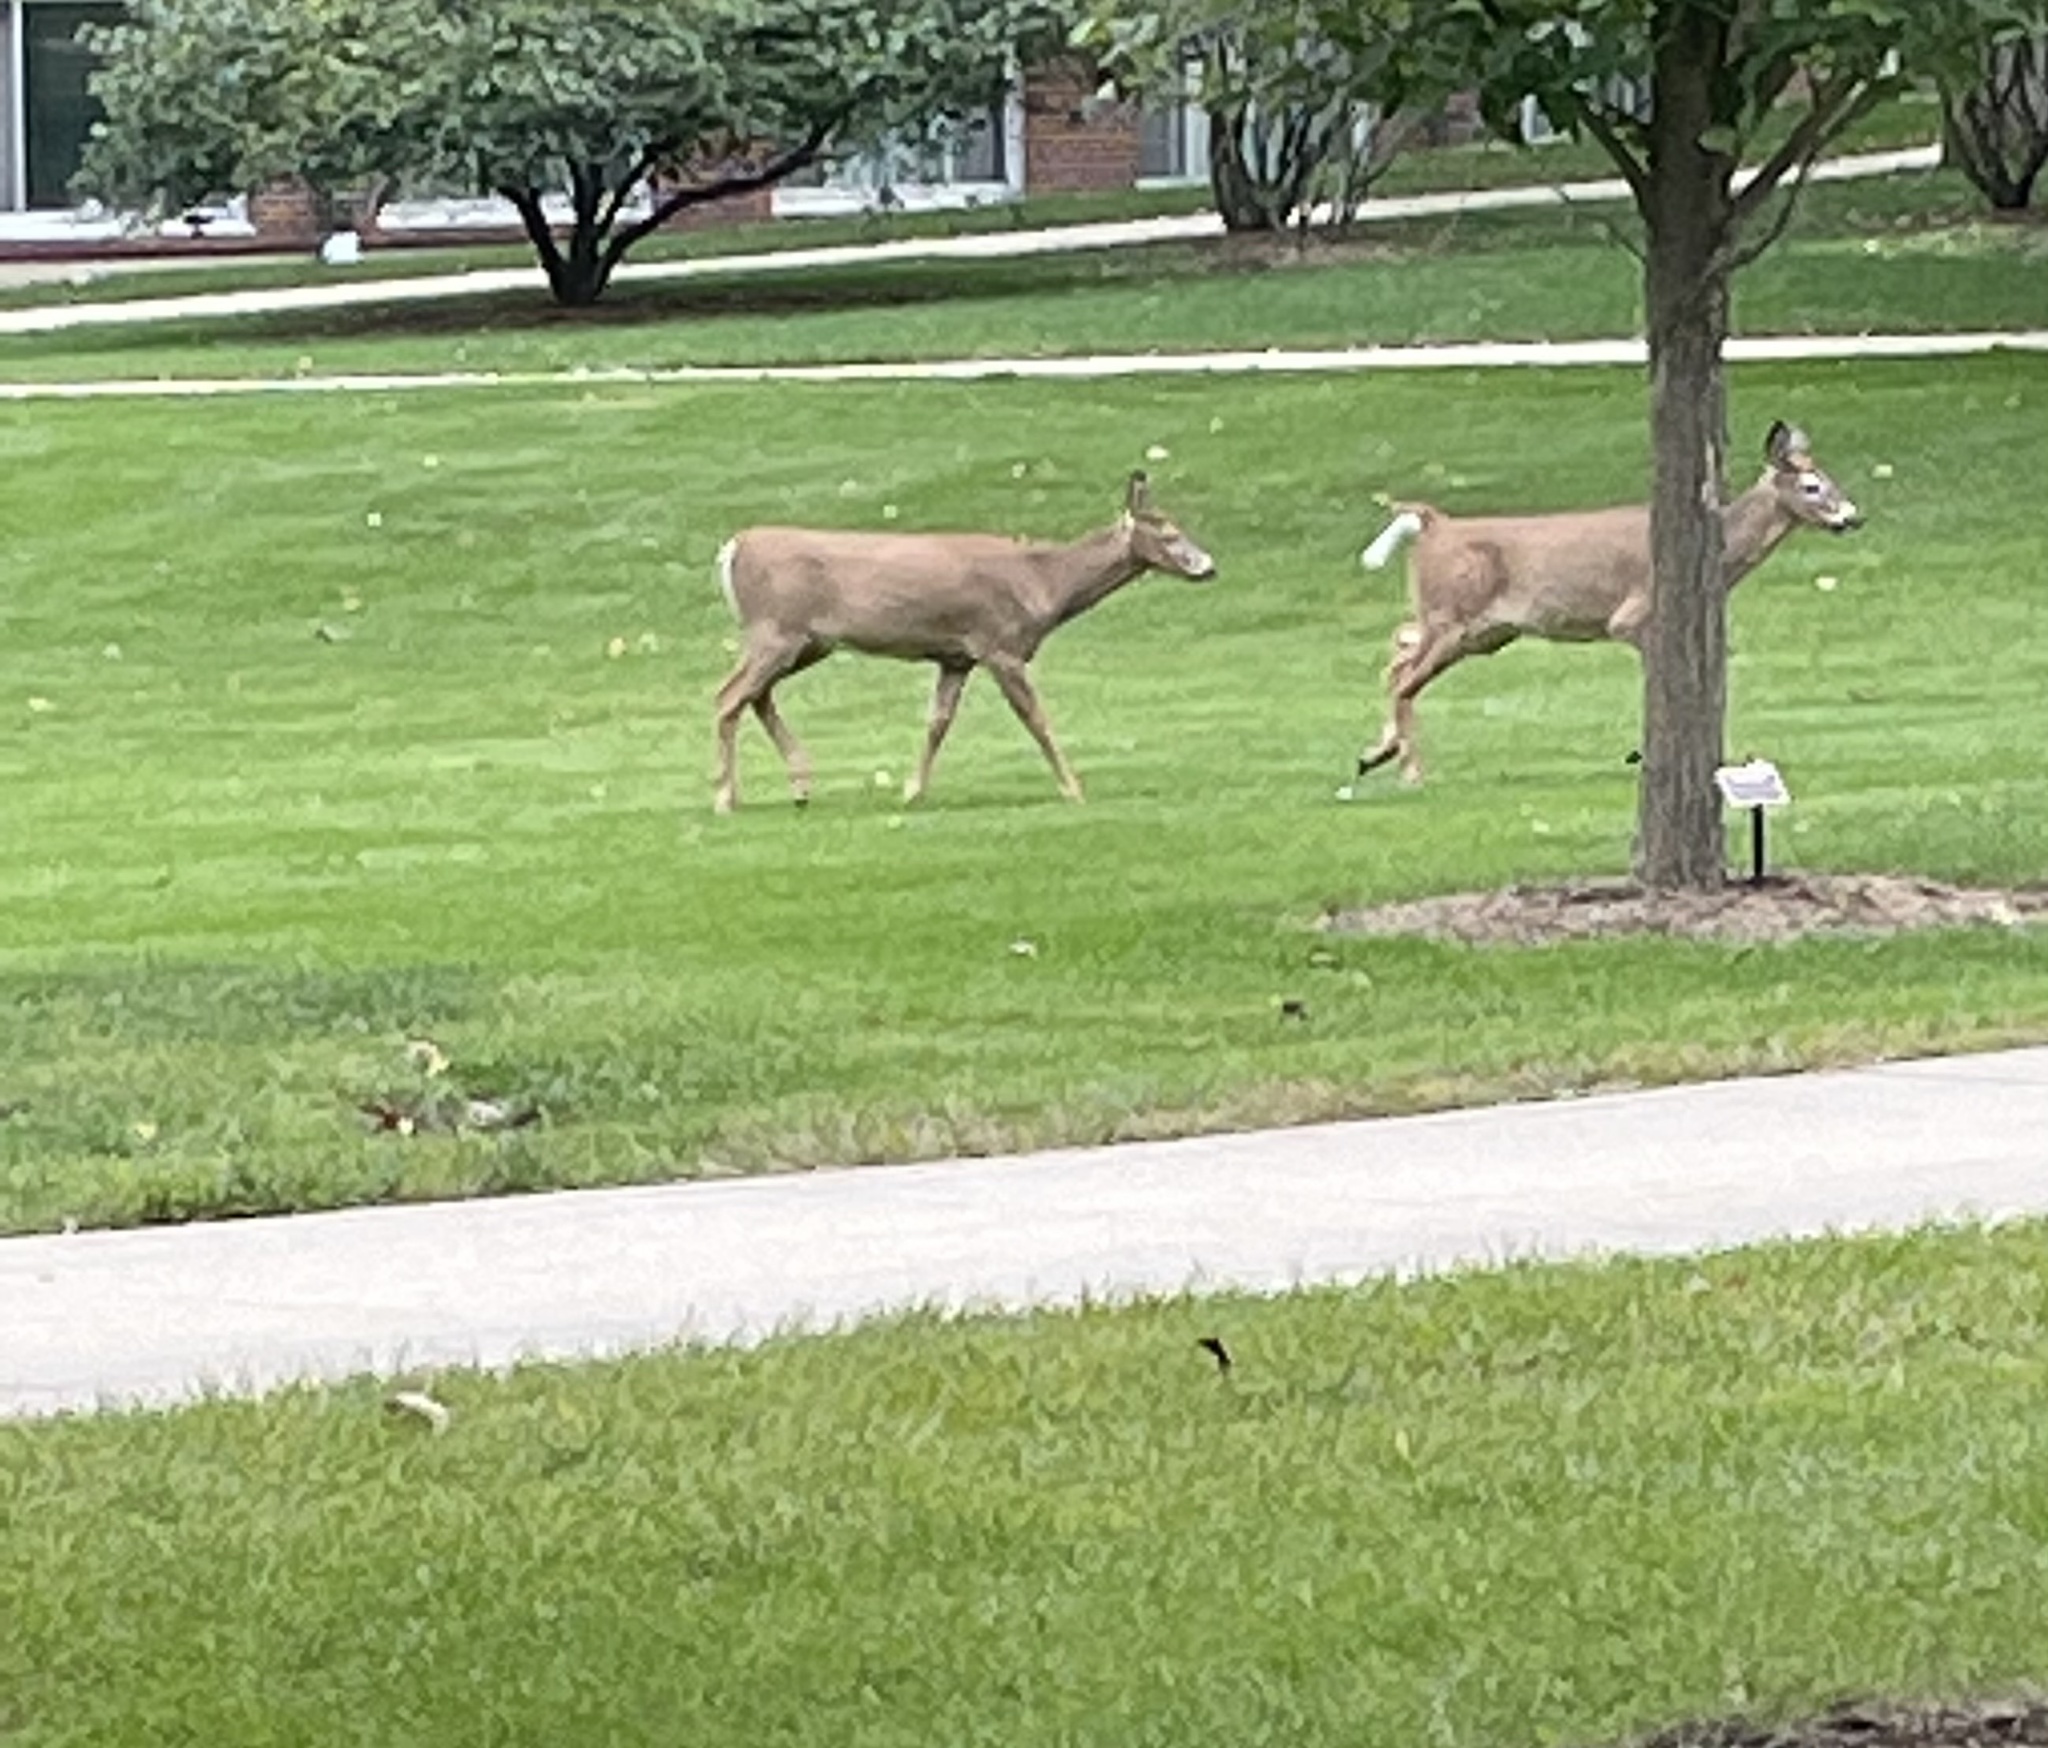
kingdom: Animalia
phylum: Chordata
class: Mammalia
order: Artiodactyla
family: Cervidae
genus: Odocoileus
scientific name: Odocoileus virginianus
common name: White-tailed deer
